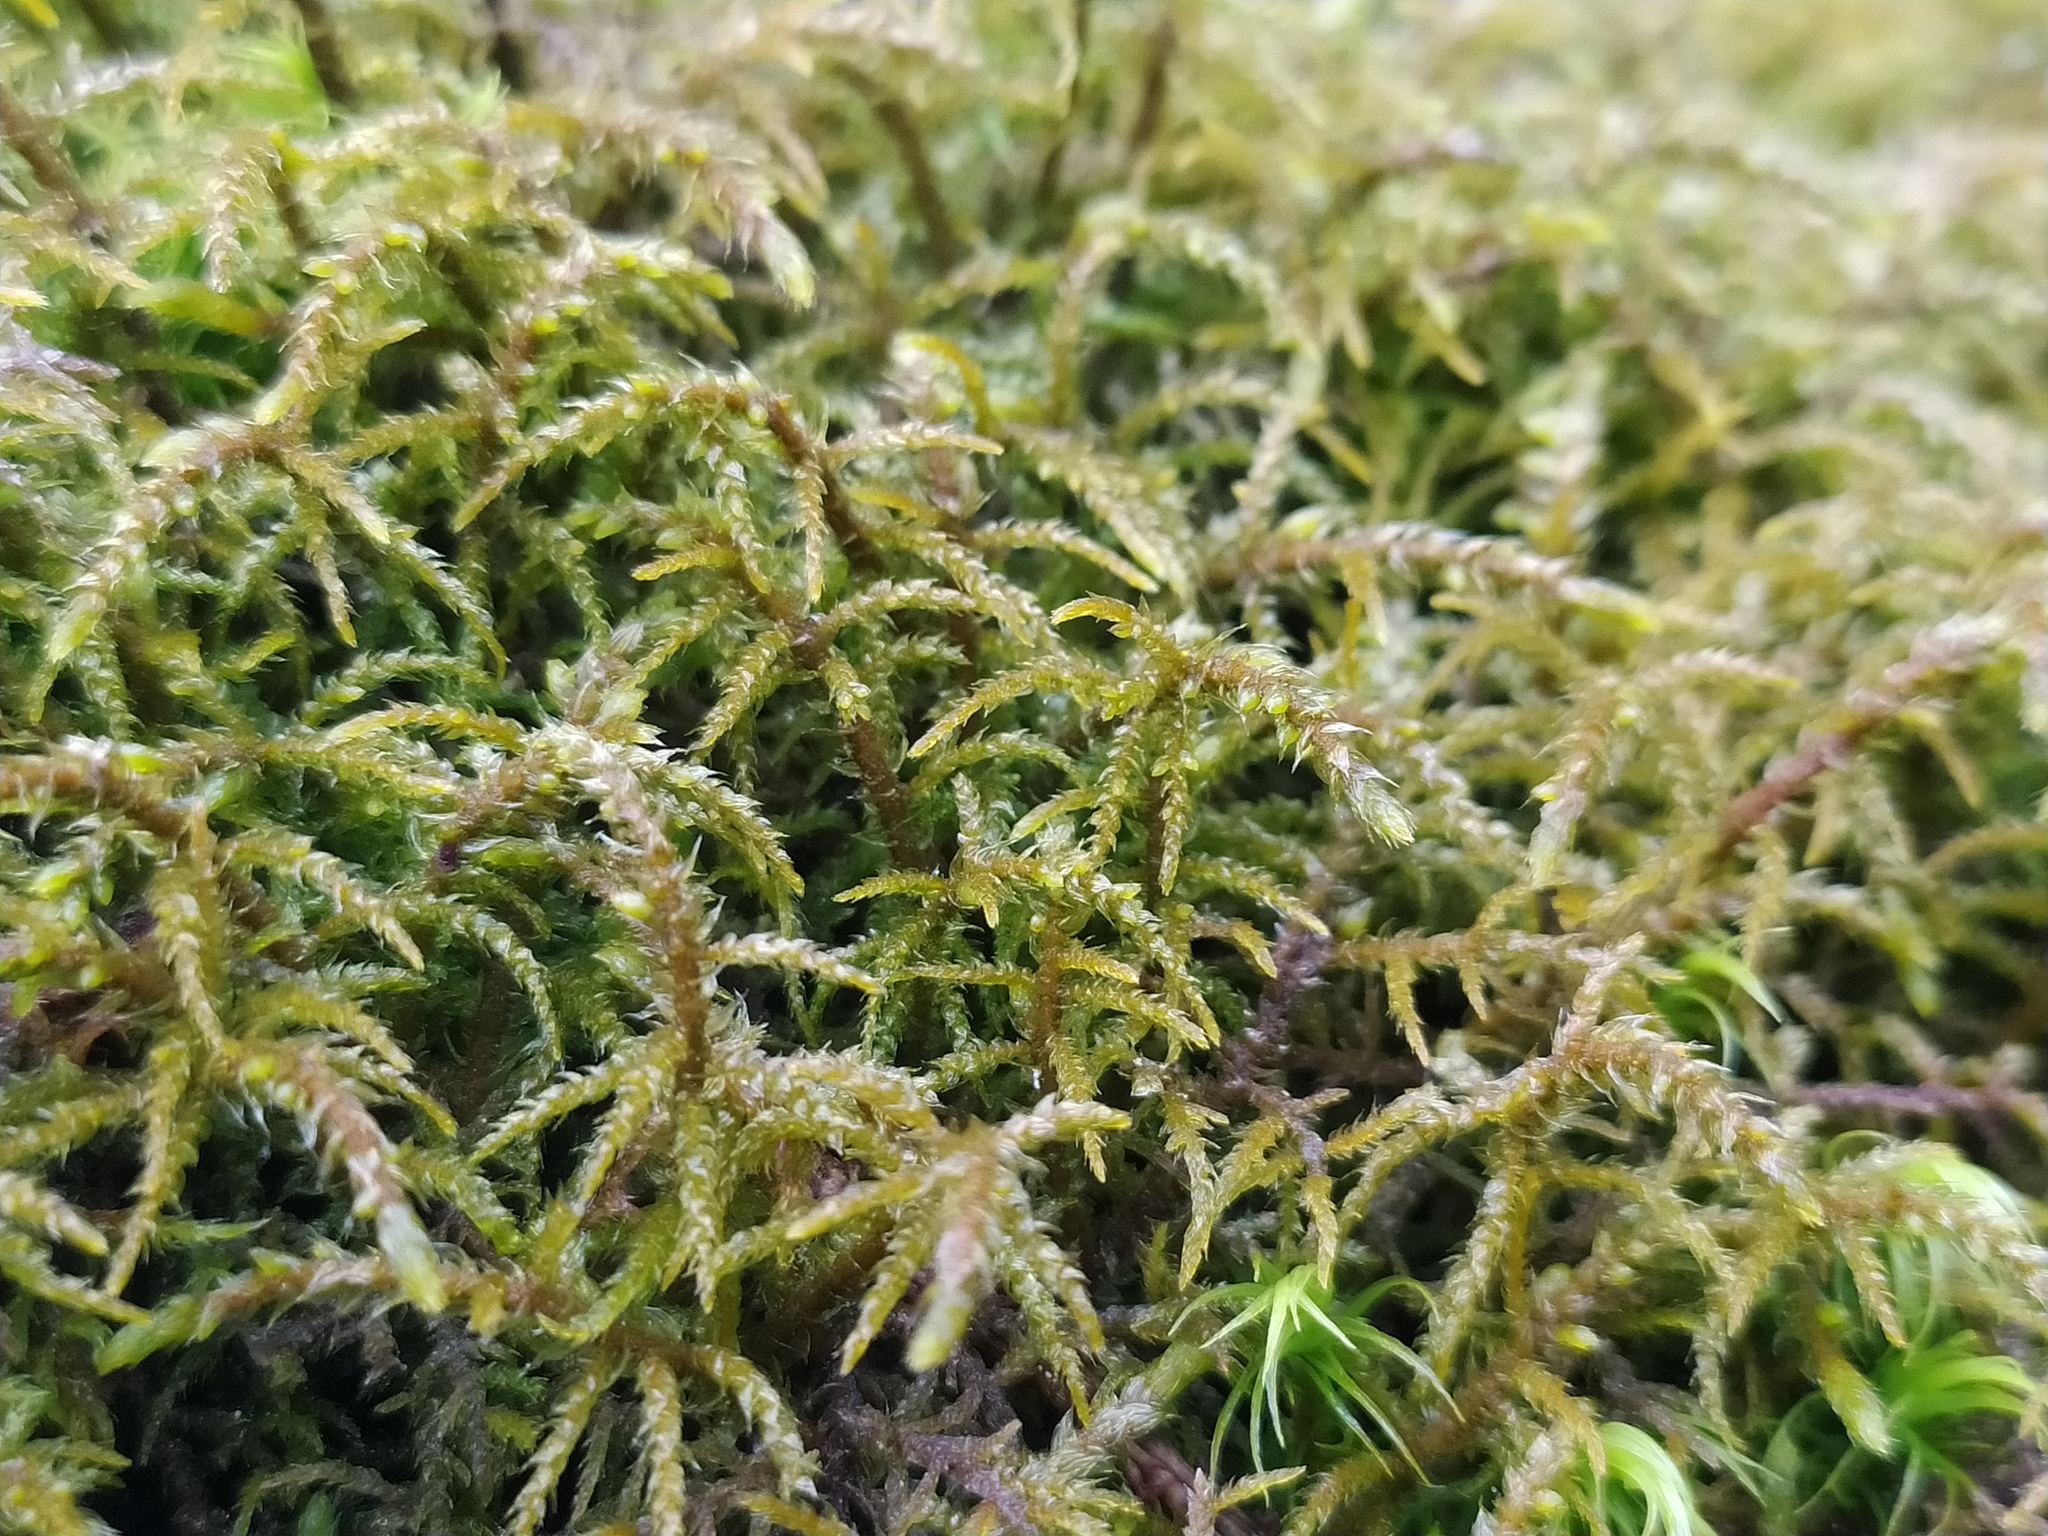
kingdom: Plantae
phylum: Bryophyta
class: Bryopsida
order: Hypnales
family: Hylocomiaceae
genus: Hylocomiastrum
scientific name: Hylocomiastrum umbratum
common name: Shaded woods moss
